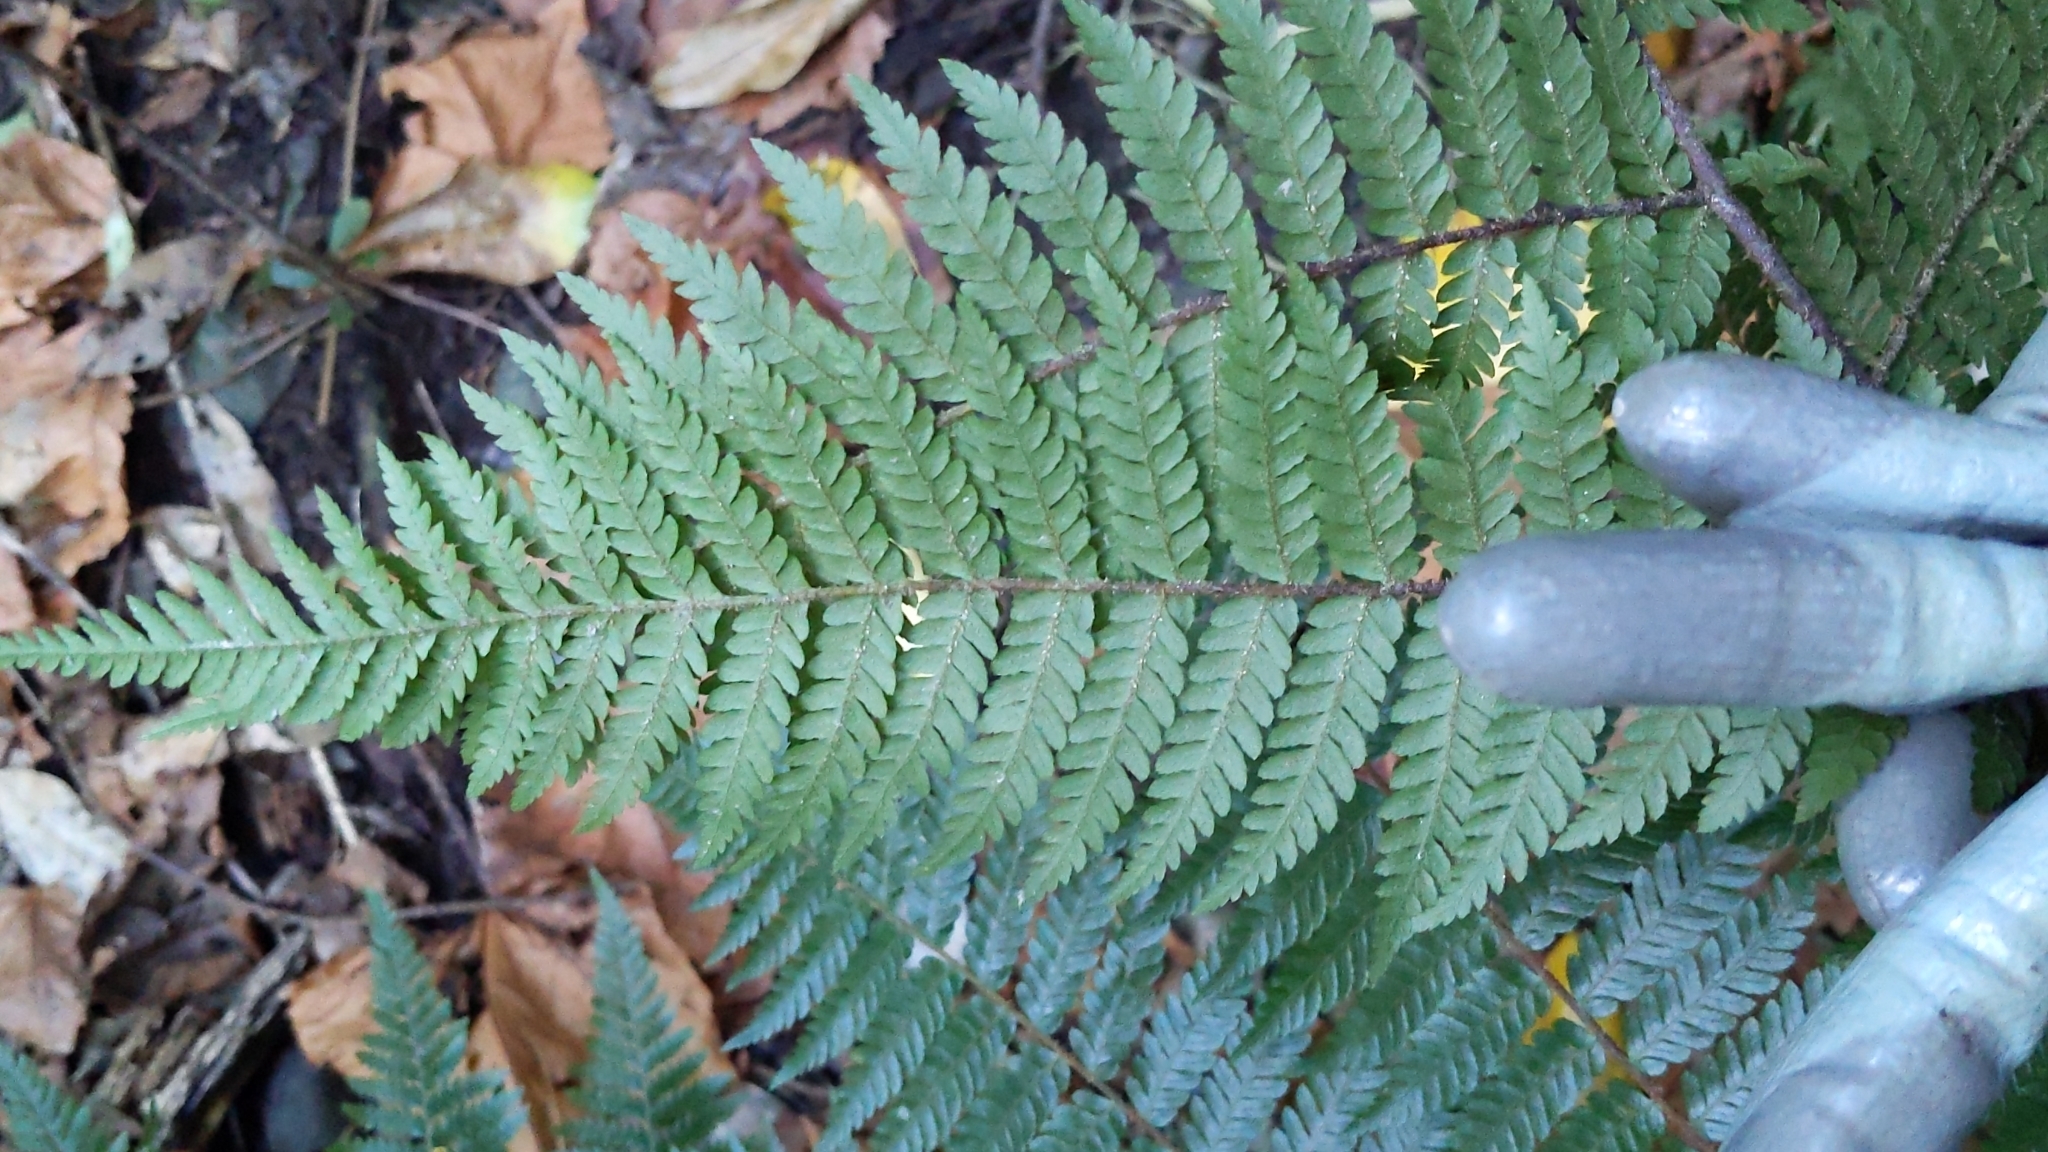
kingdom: Plantae
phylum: Tracheophyta
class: Polypodiopsida
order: Cyatheales
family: Cyatheaceae
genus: Alsophila
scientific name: Alsophila smithii
